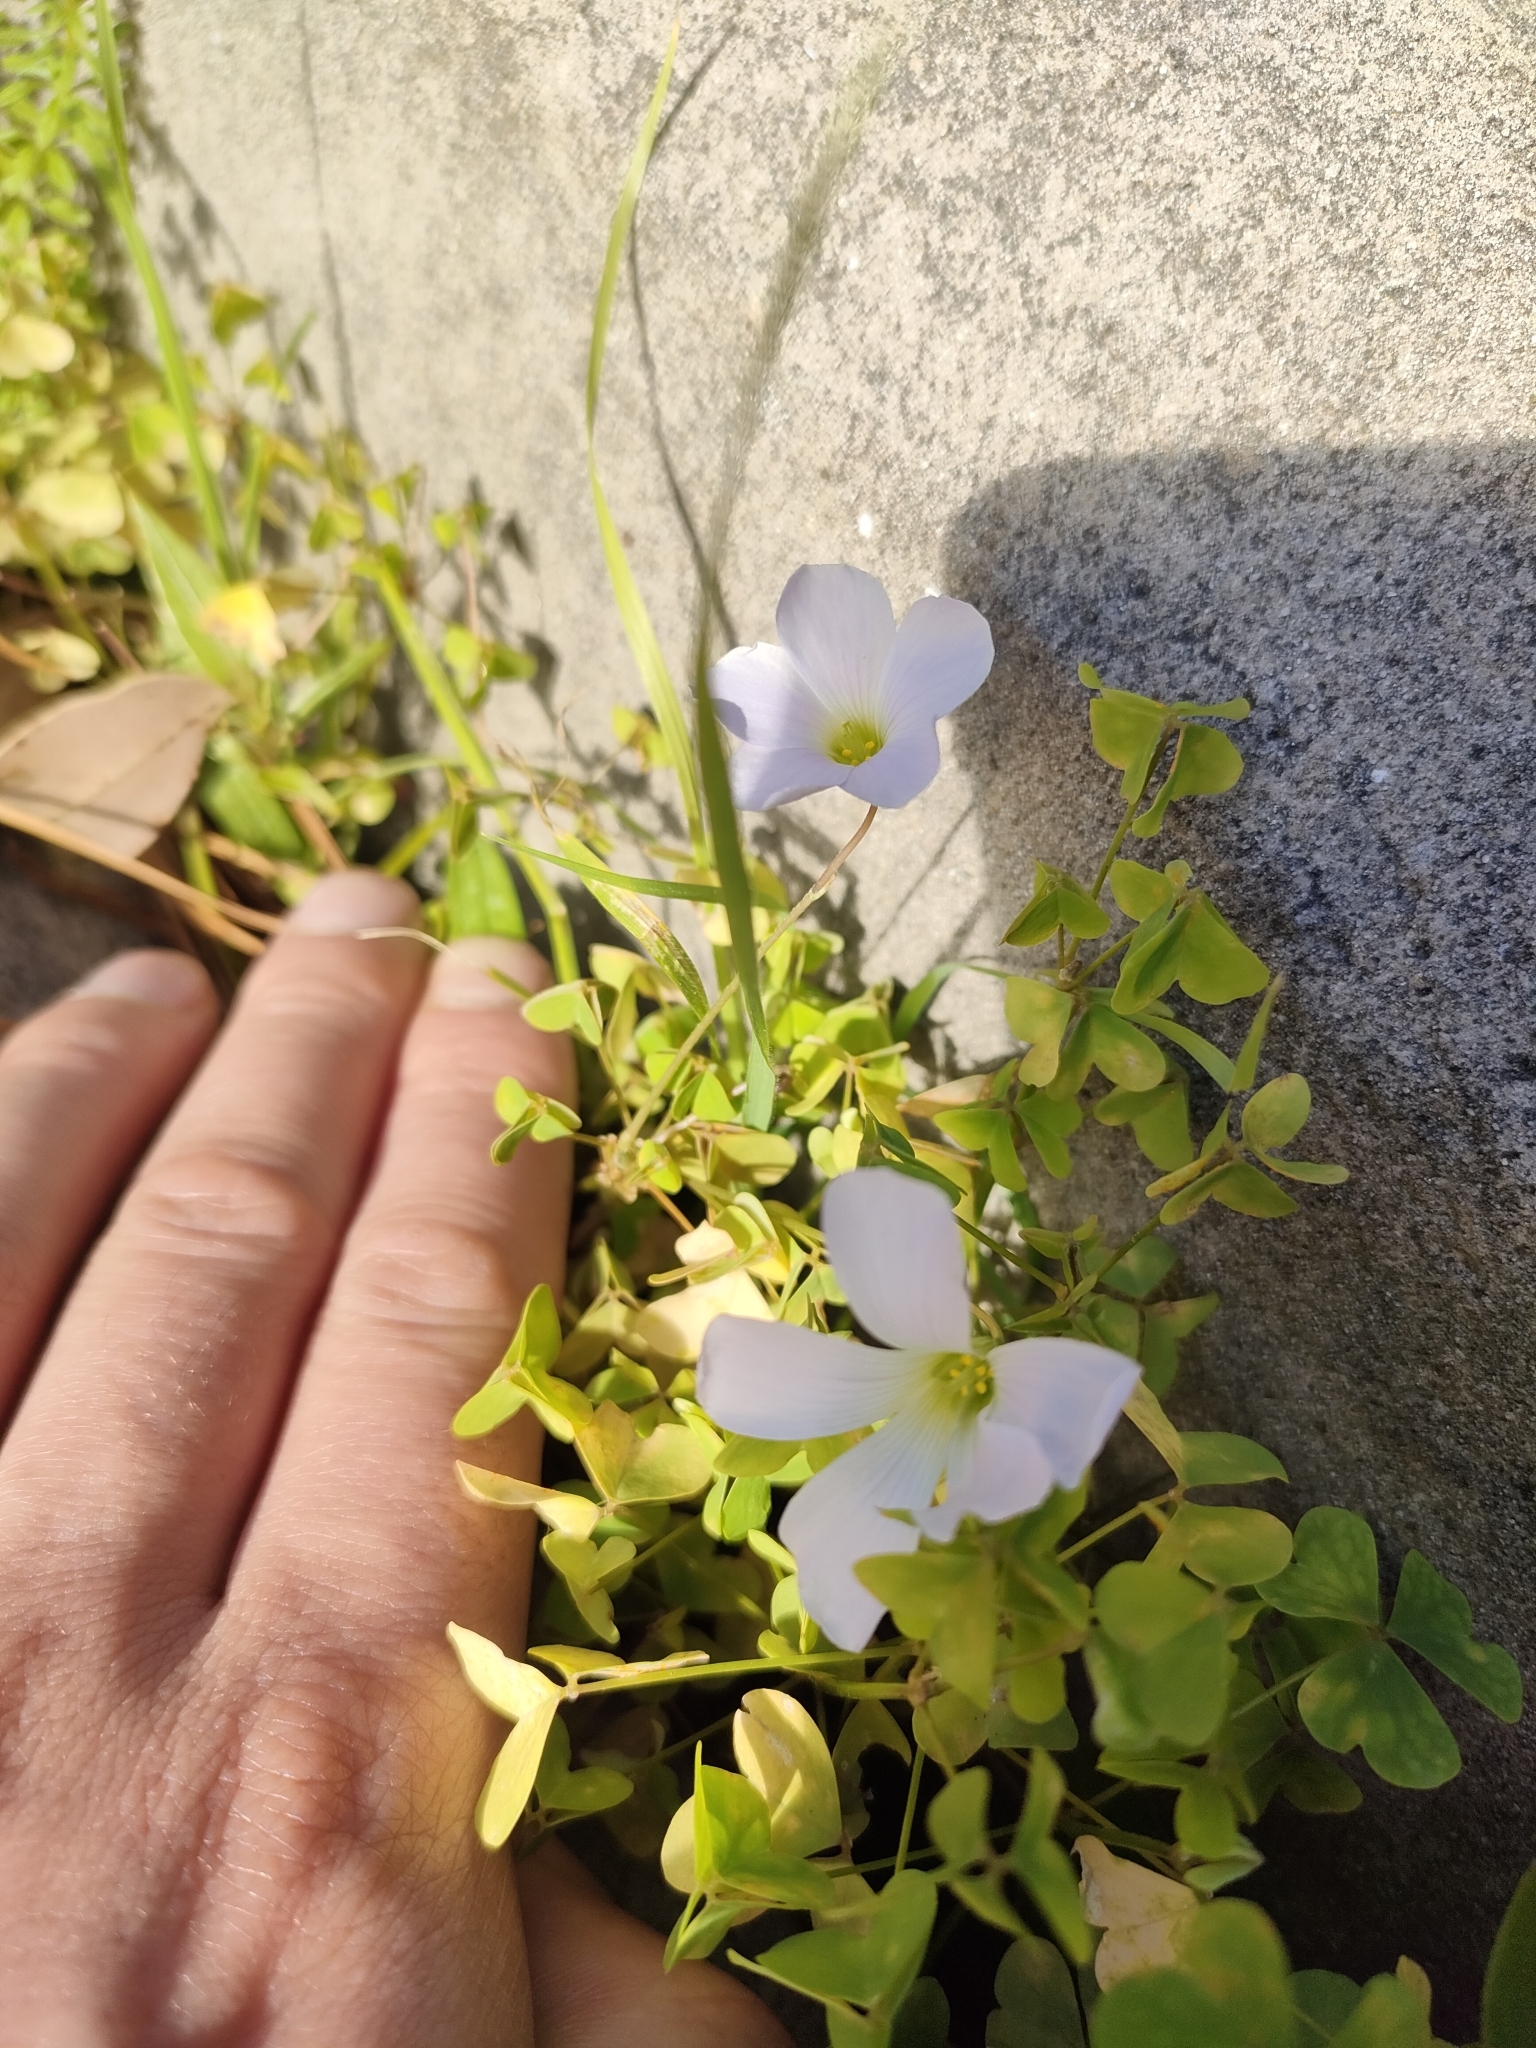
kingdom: Plantae
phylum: Tracheophyta
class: Magnoliopsida
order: Oxalidales
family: Oxalidaceae
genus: Oxalis
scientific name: Oxalis incarnata
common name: Pale pink-sorrel
